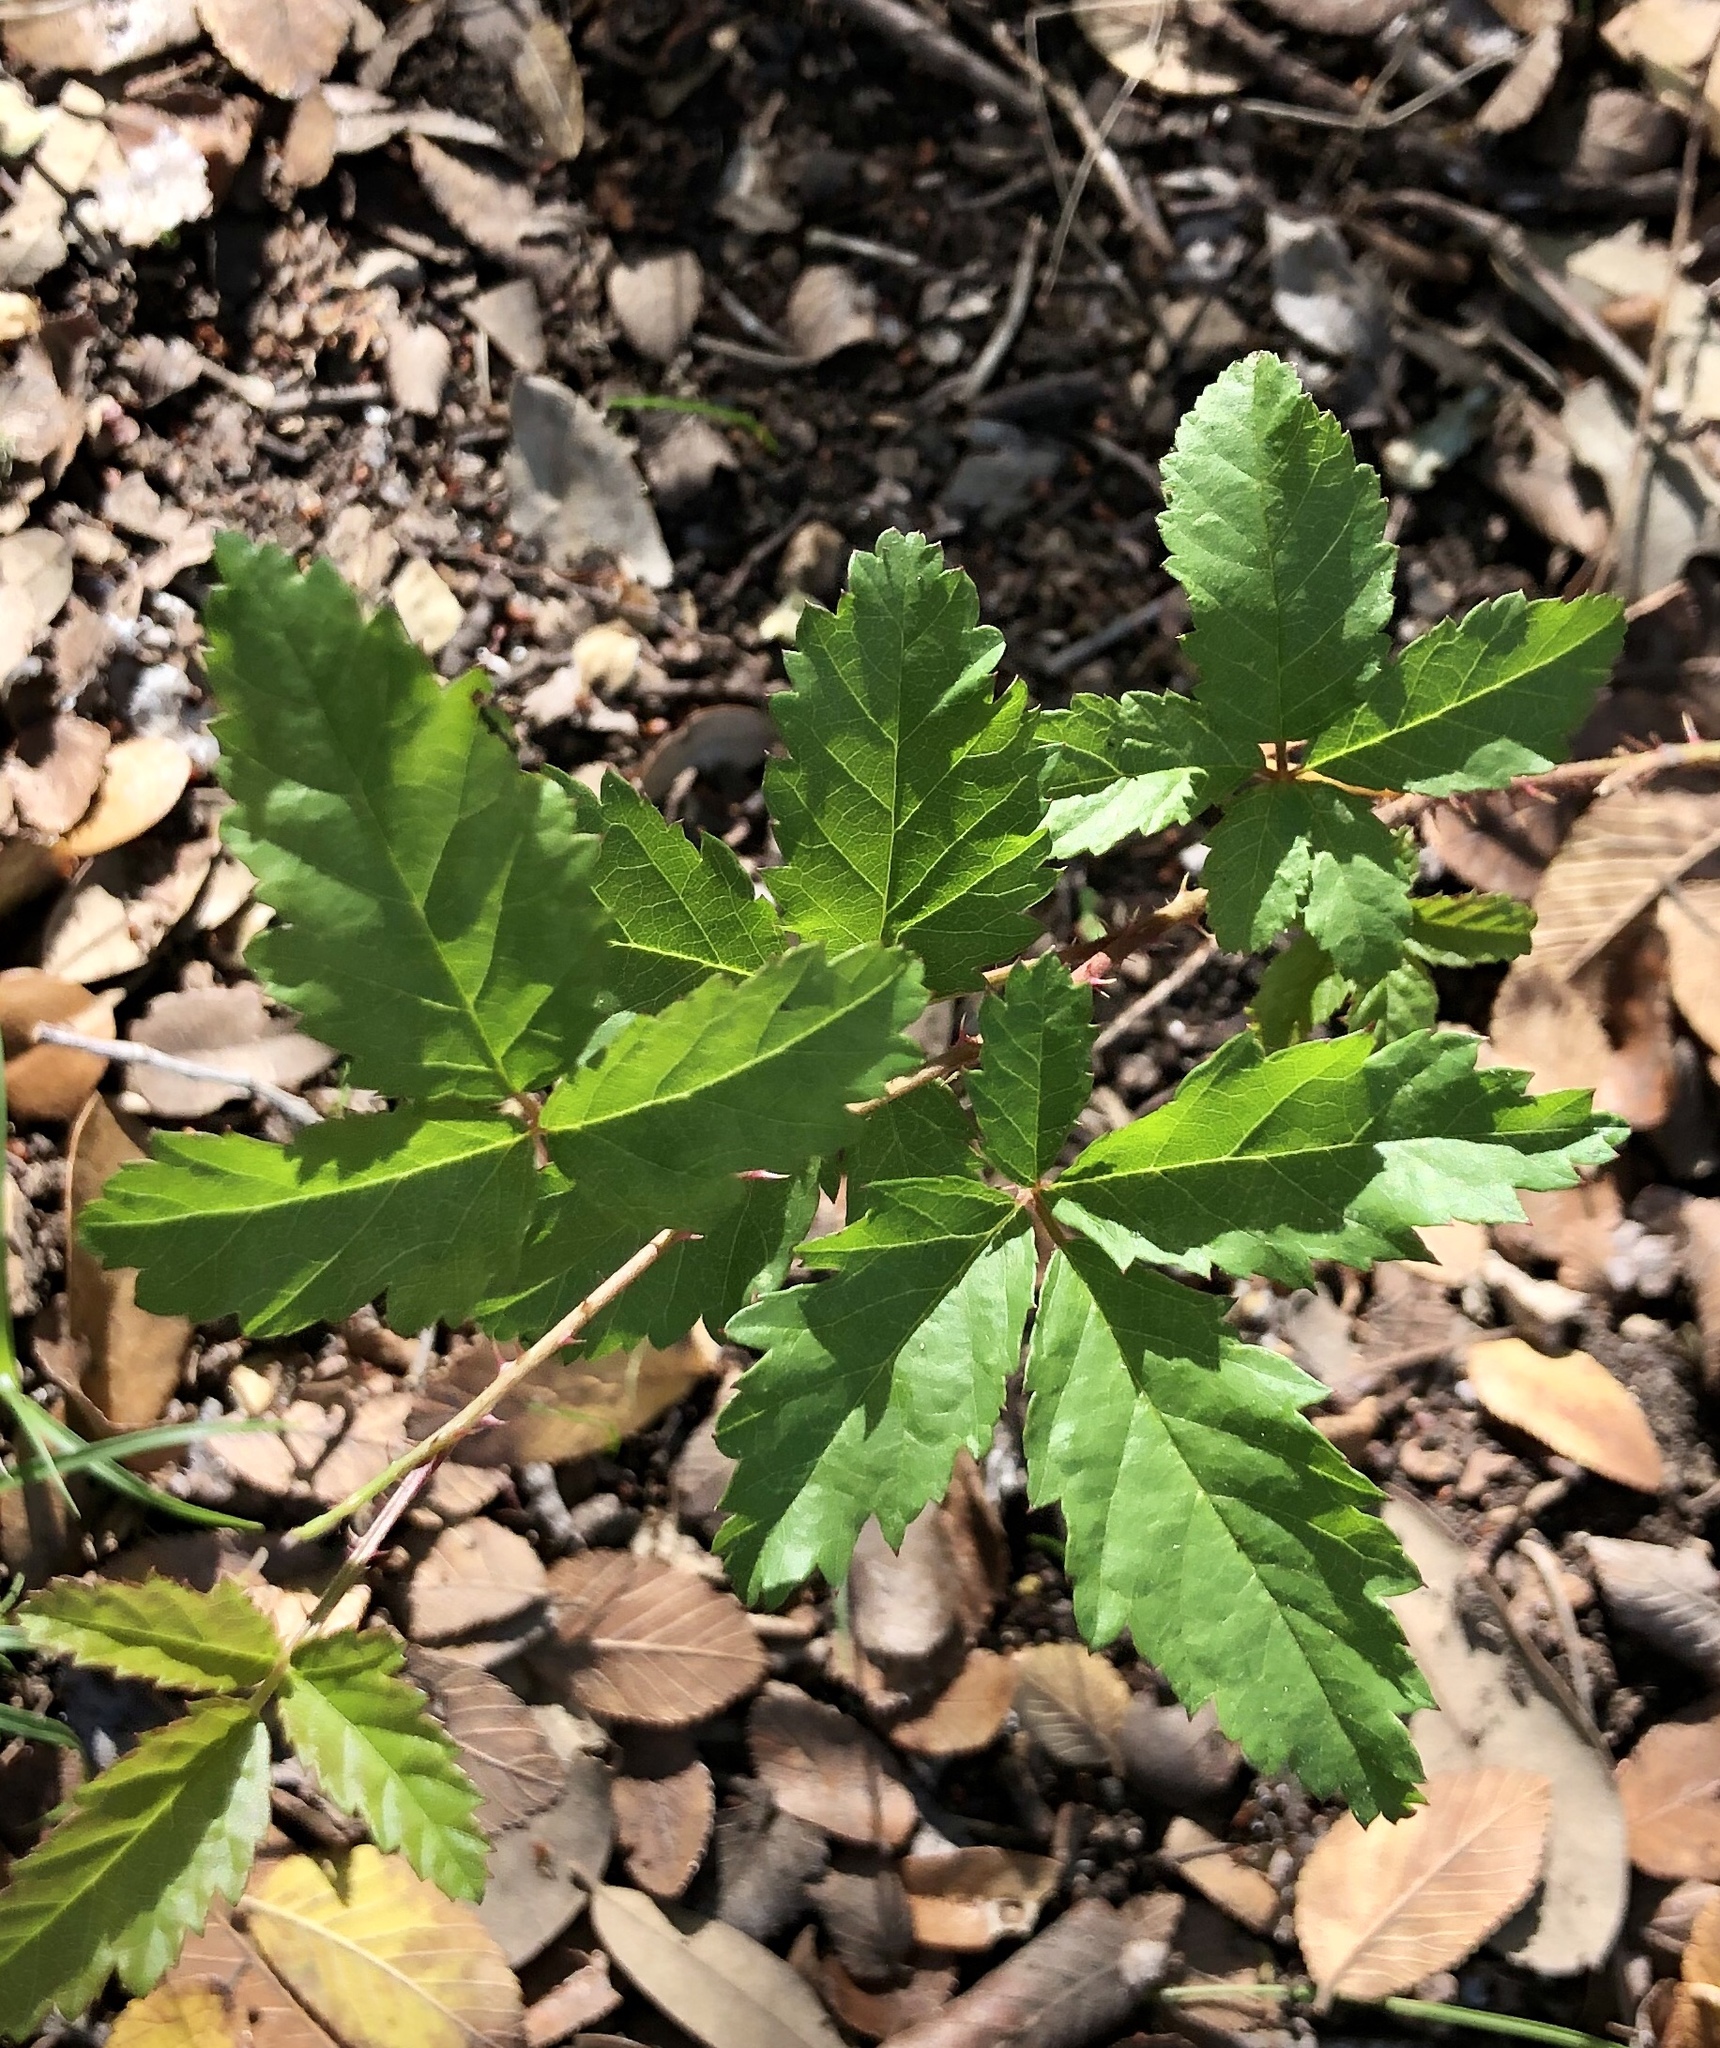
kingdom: Plantae
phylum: Tracheophyta
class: Magnoliopsida
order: Rosales
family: Rosaceae
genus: Rubus
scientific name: Rubus trivialis
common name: Southern dewberry
